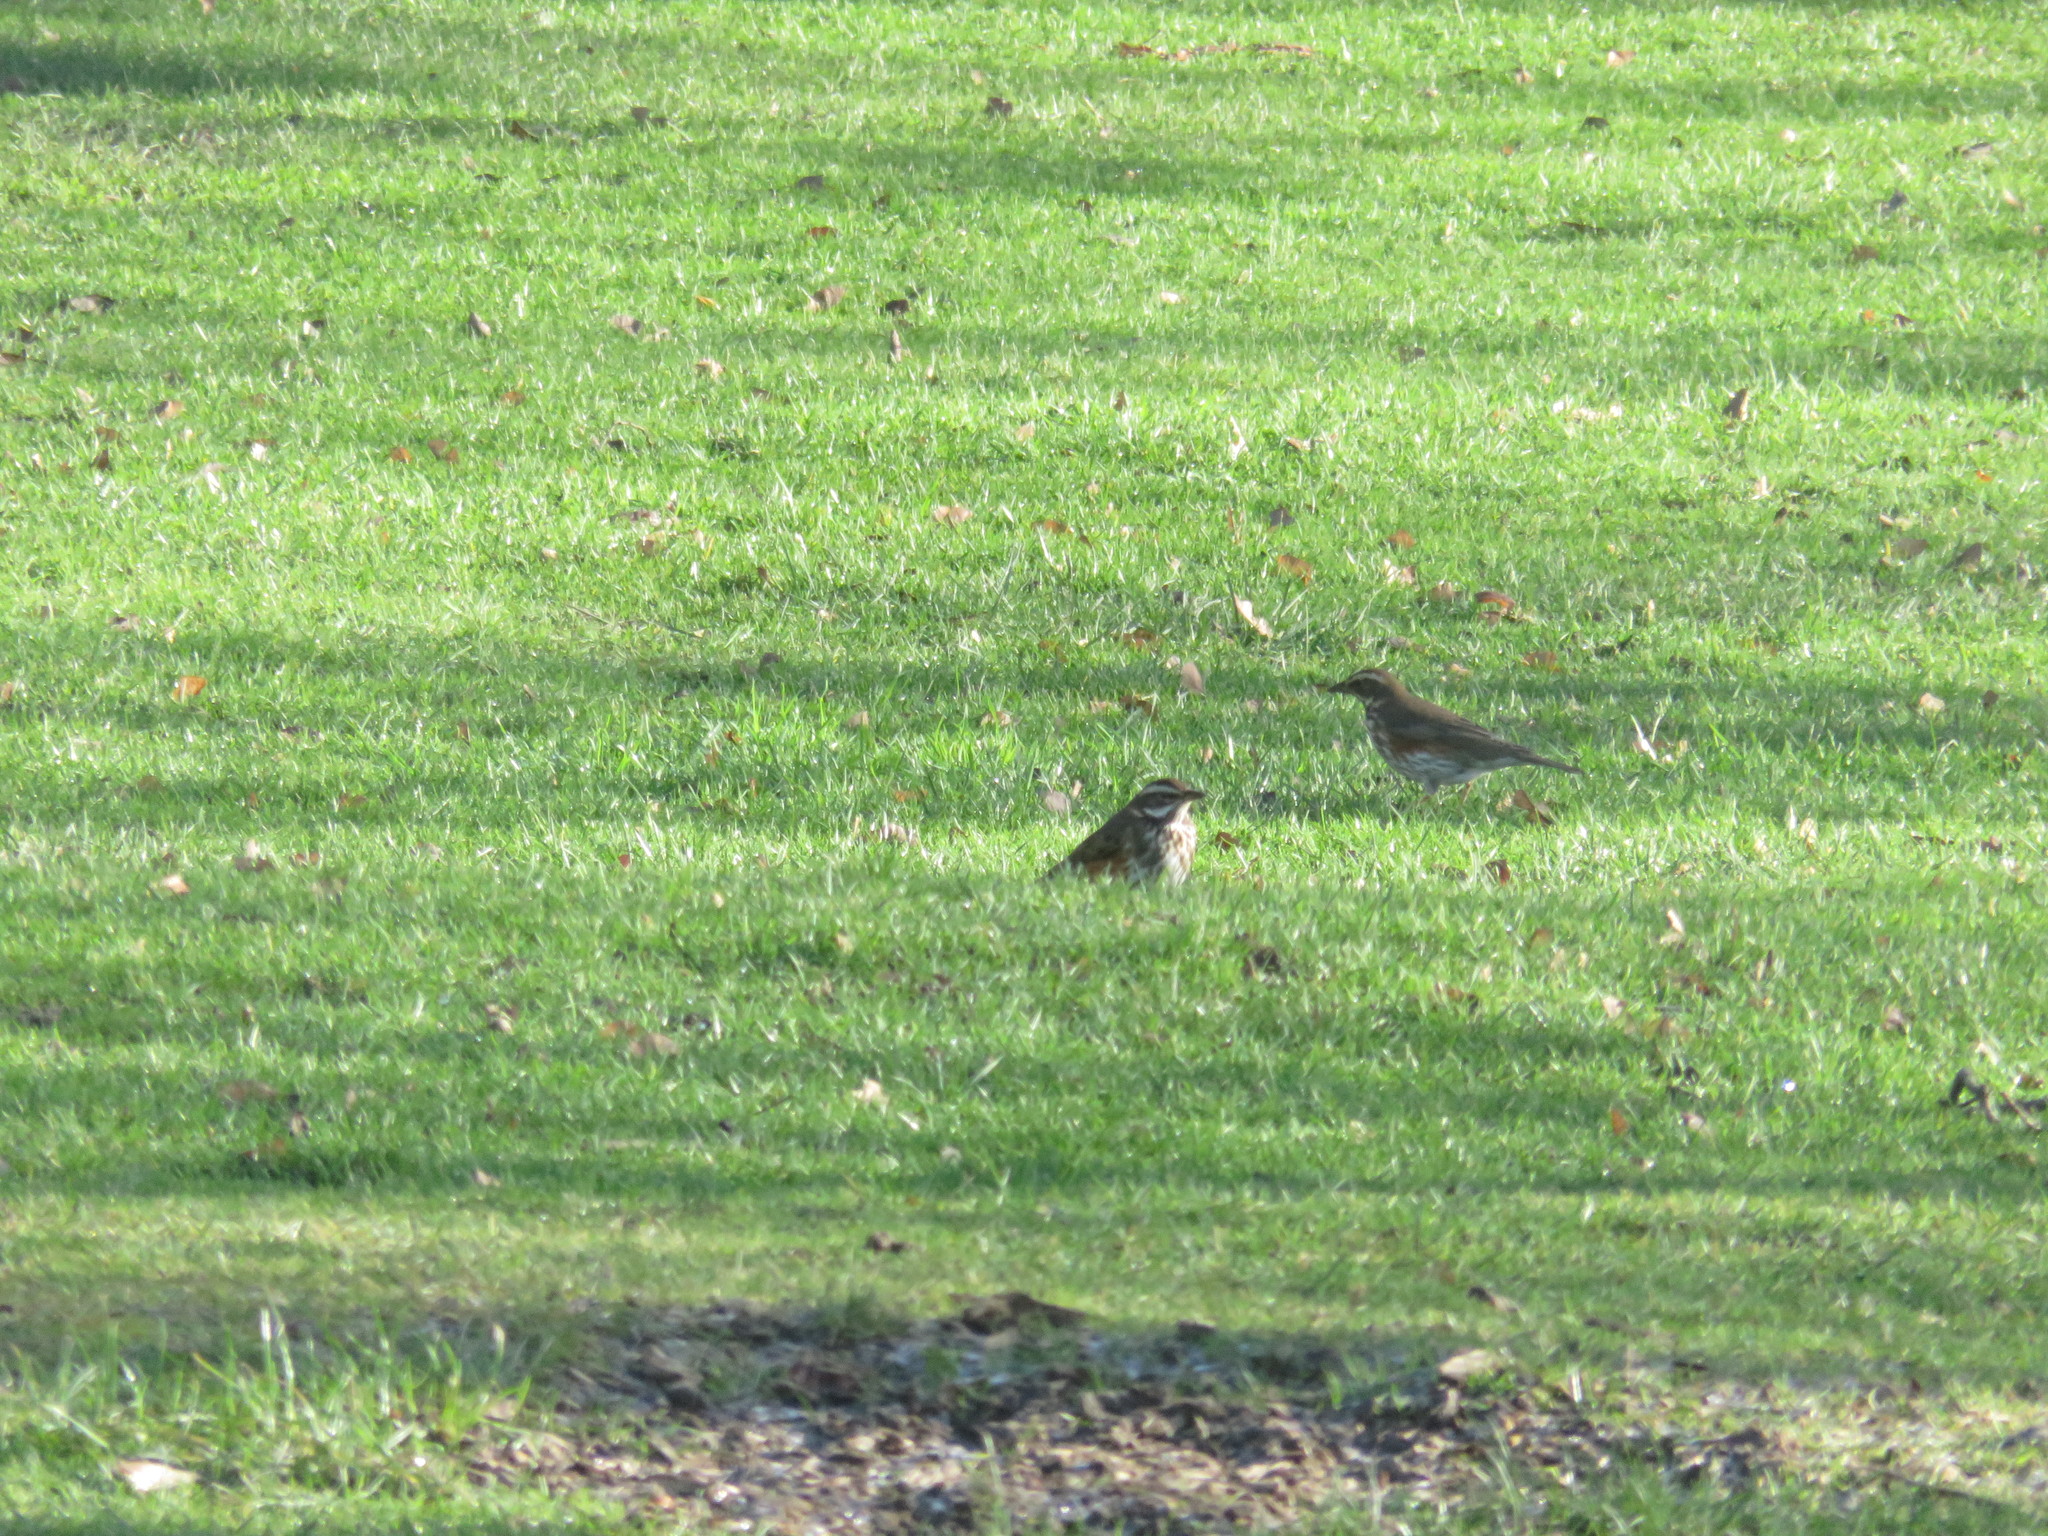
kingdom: Animalia
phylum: Chordata
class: Aves
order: Passeriformes
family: Turdidae
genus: Turdus
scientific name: Turdus iliacus
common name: Redwing
